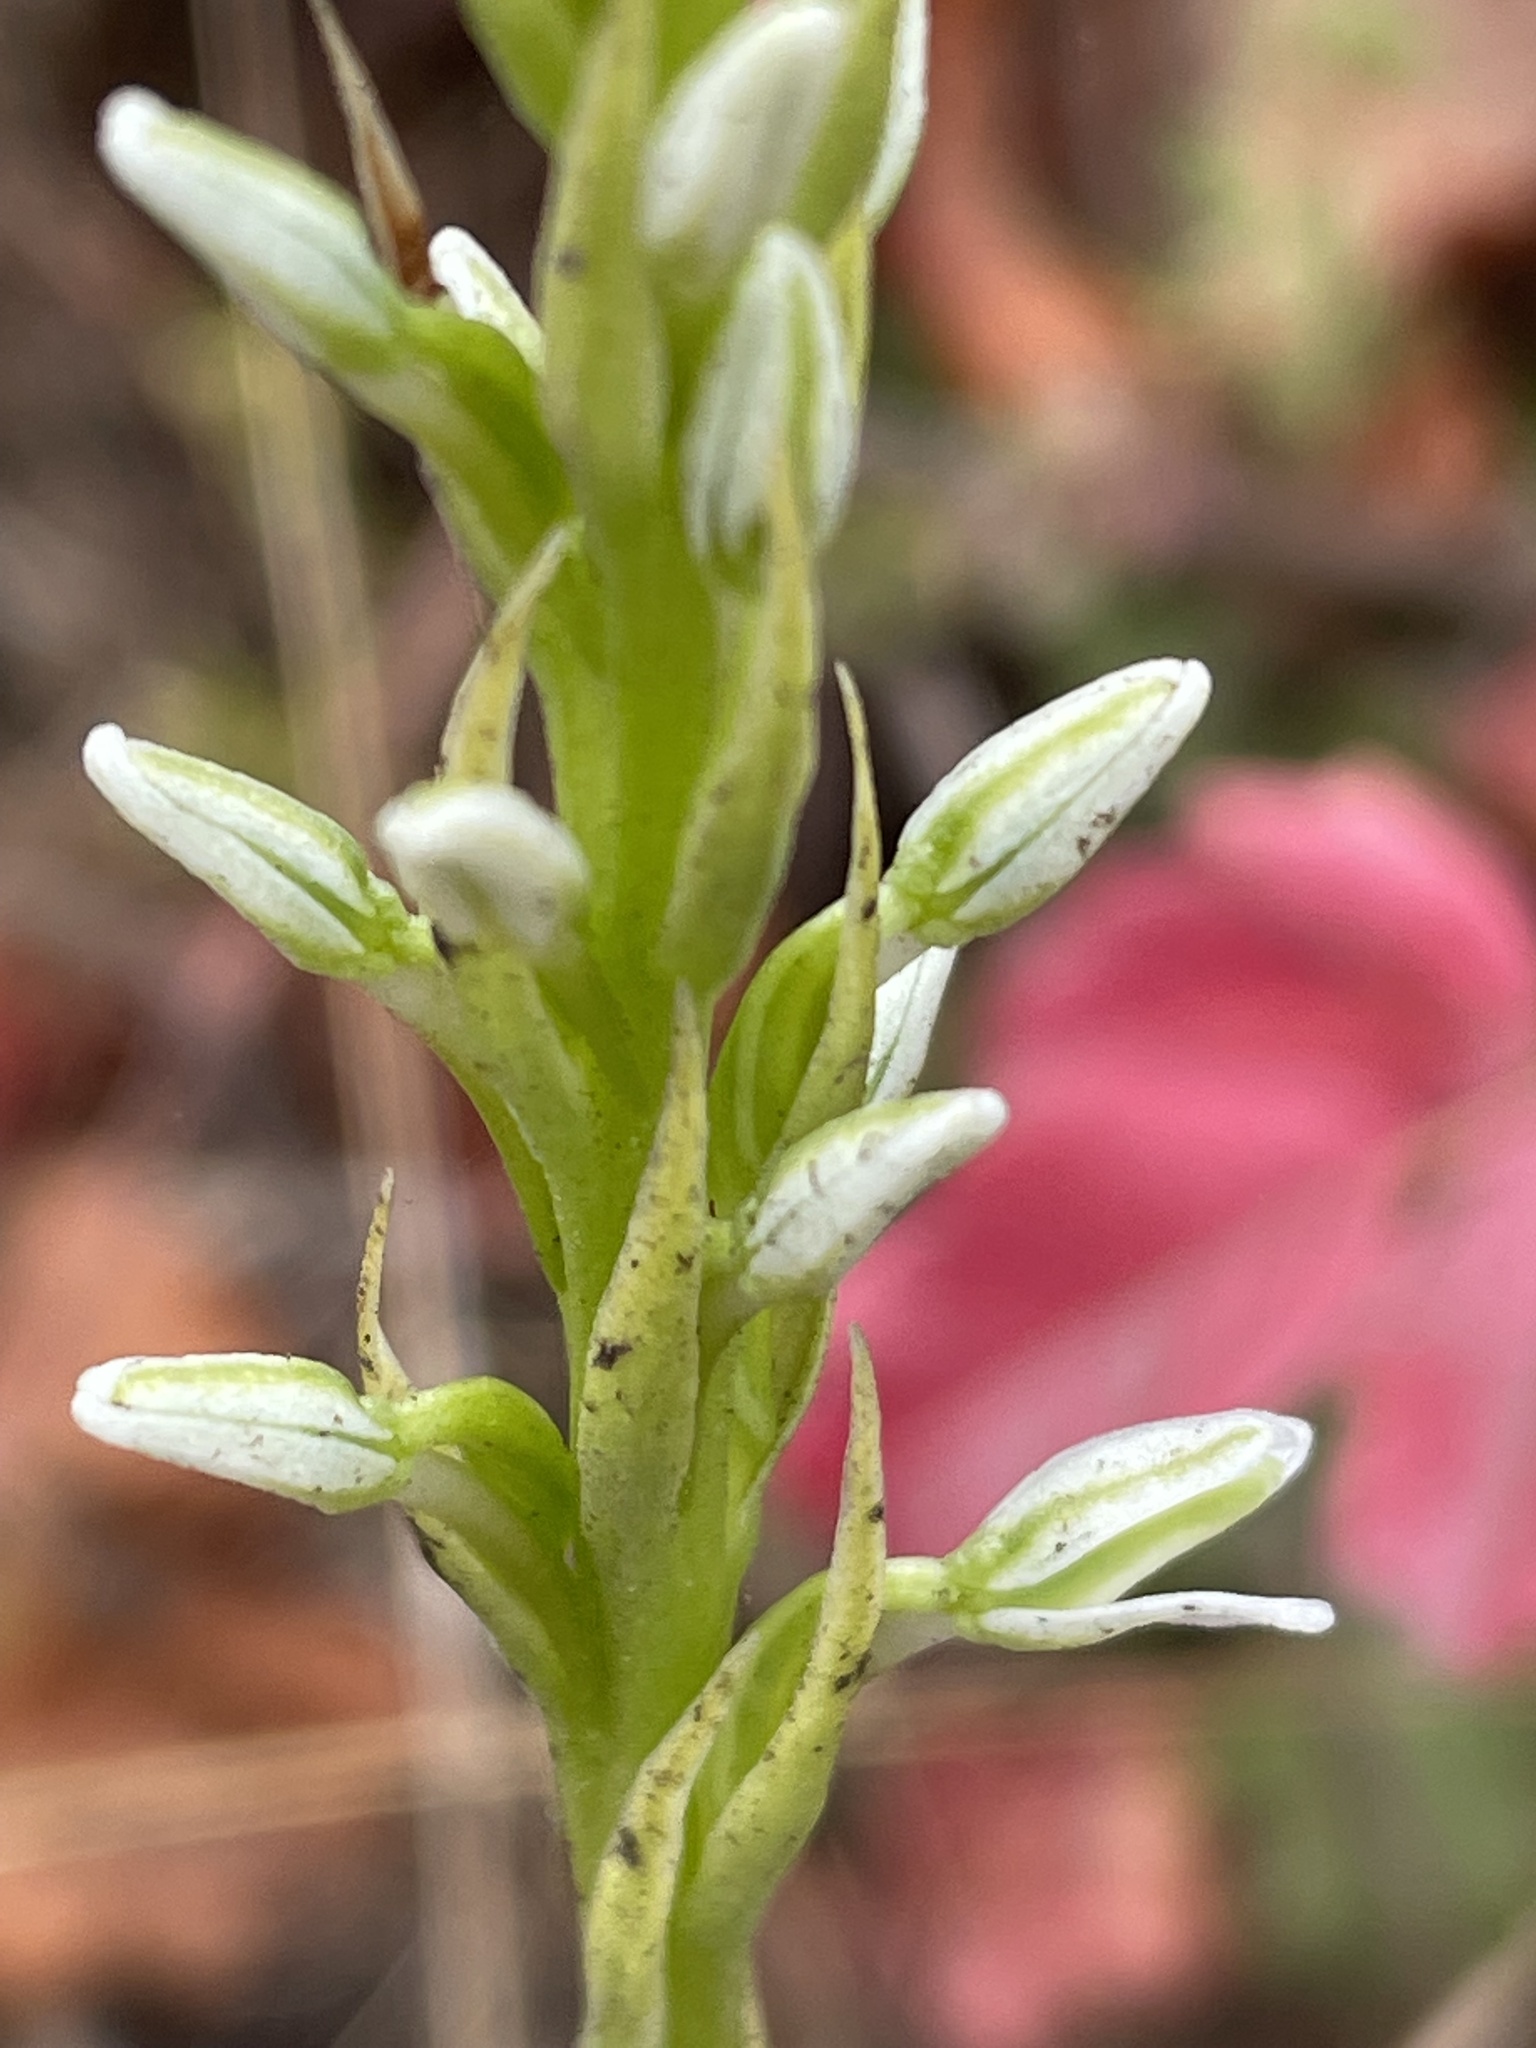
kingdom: Plantae
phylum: Tracheophyta
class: Liliopsida
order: Asparagales
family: Orchidaceae
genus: Platanthera
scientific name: Platanthera elegans
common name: Coast piperia
